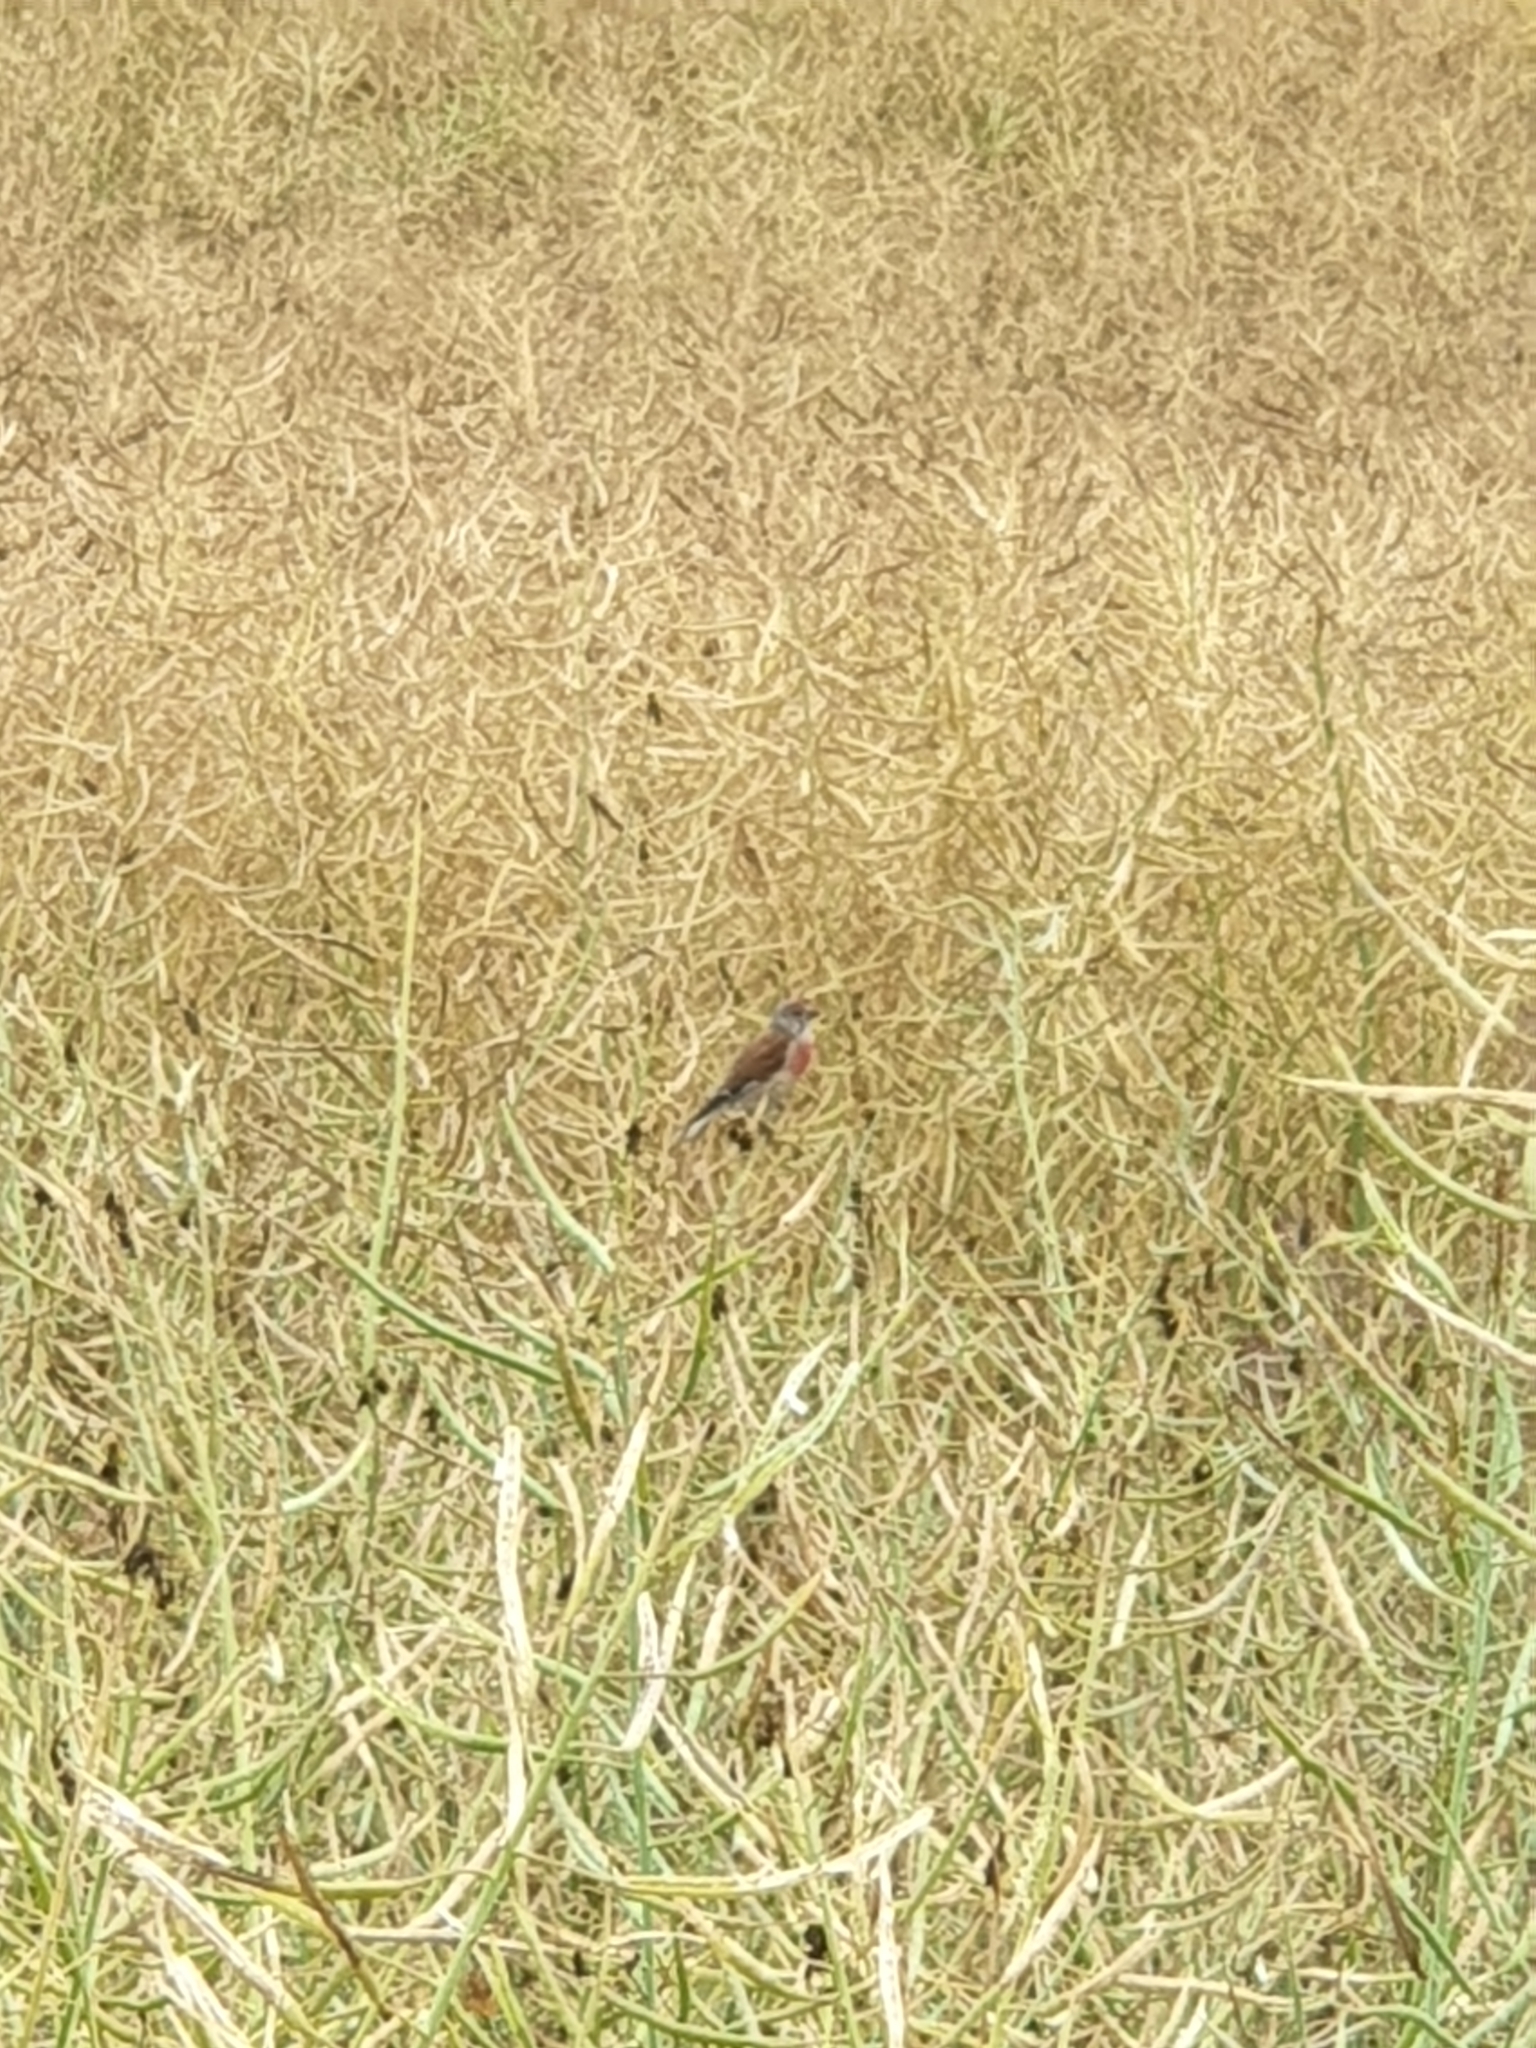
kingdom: Animalia
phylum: Chordata
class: Aves
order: Passeriformes
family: Fringillidae
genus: Linaria
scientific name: Linaria cannabina
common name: Common linnet
